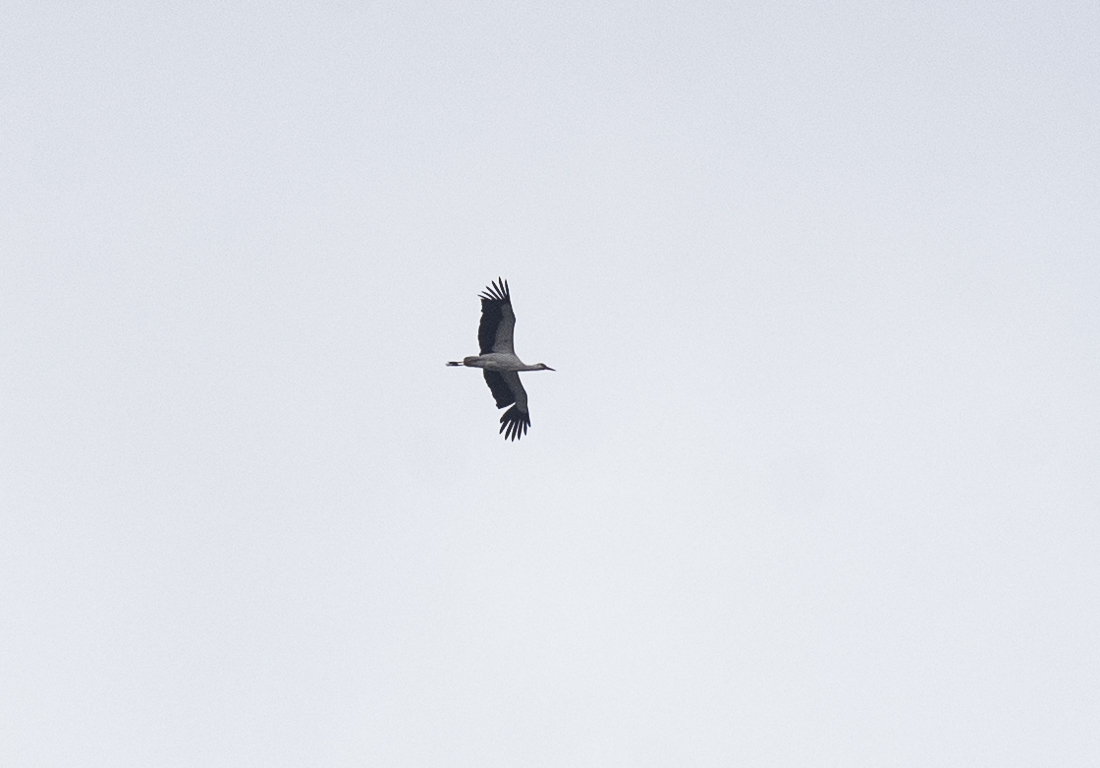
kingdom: Animalia
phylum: Chordata
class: Aves
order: Ciconiiformes
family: Ciconiidae
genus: Ciconia
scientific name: Ciconia ciconia
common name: White stork
